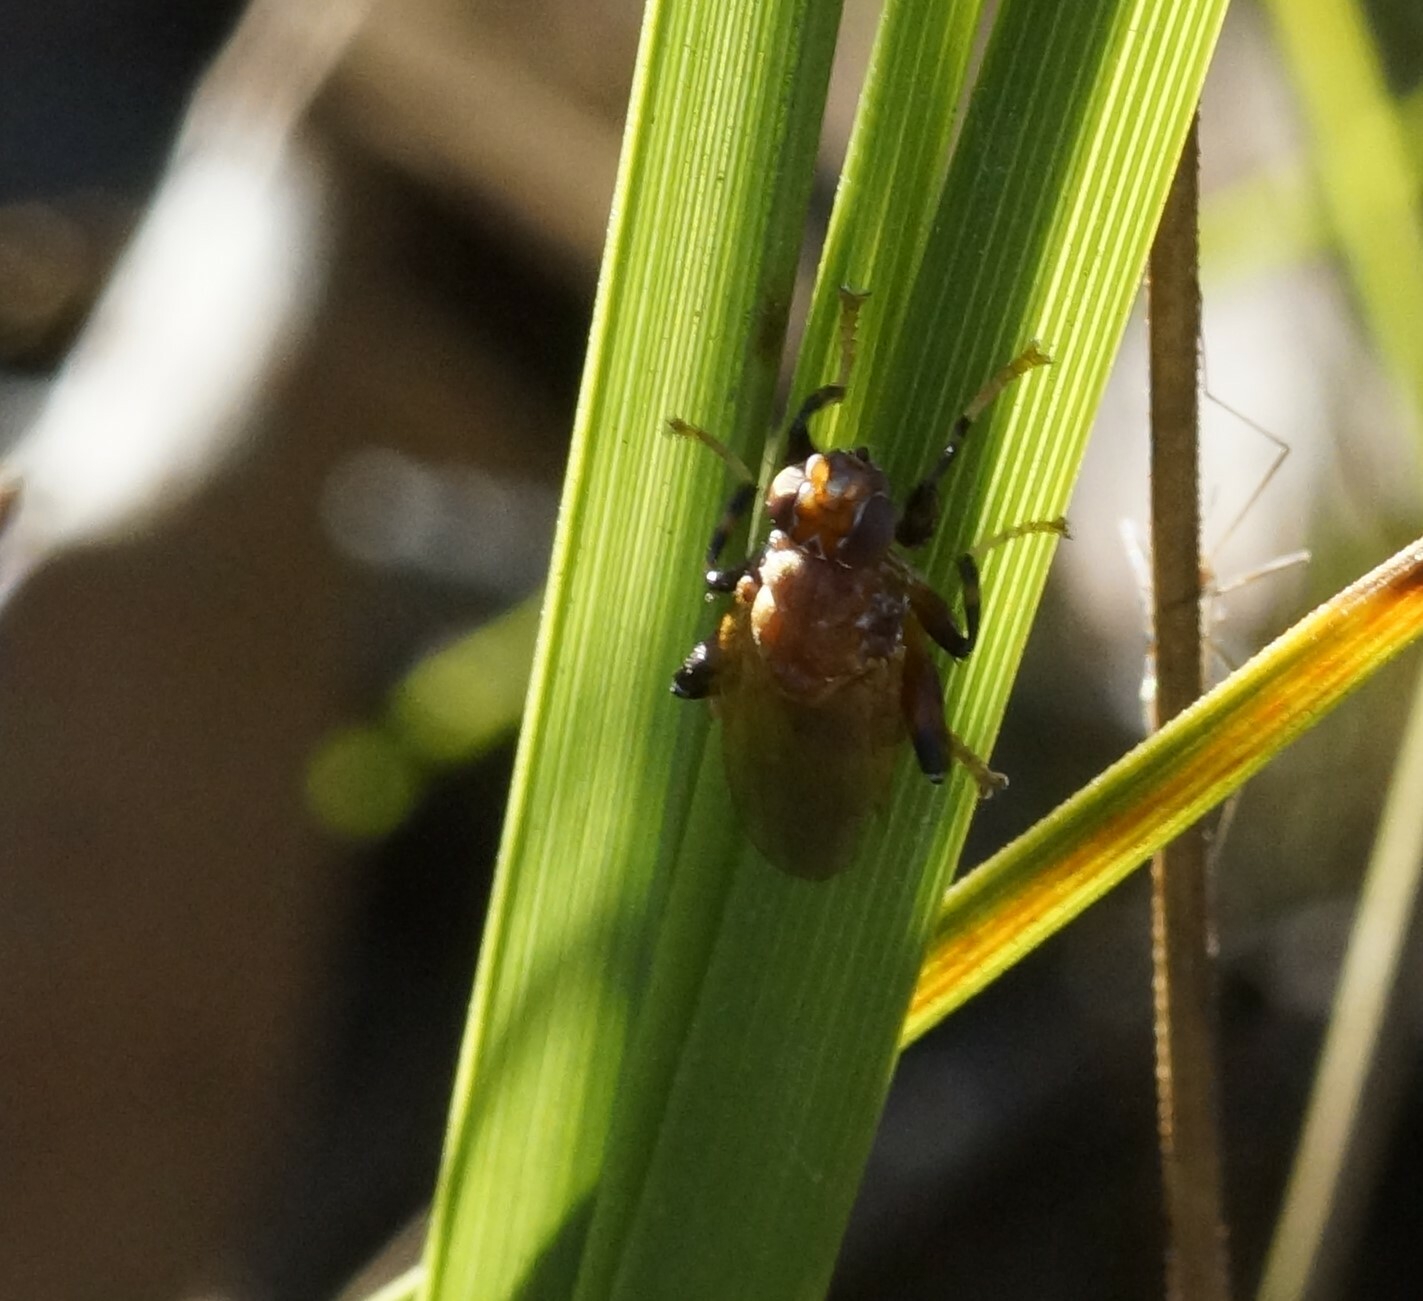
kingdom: Animalia
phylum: Arthropoda
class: Insecta
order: Diptera
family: Heleomyzidae
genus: Tapeigaster
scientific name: Tapeigaster argyrospila
